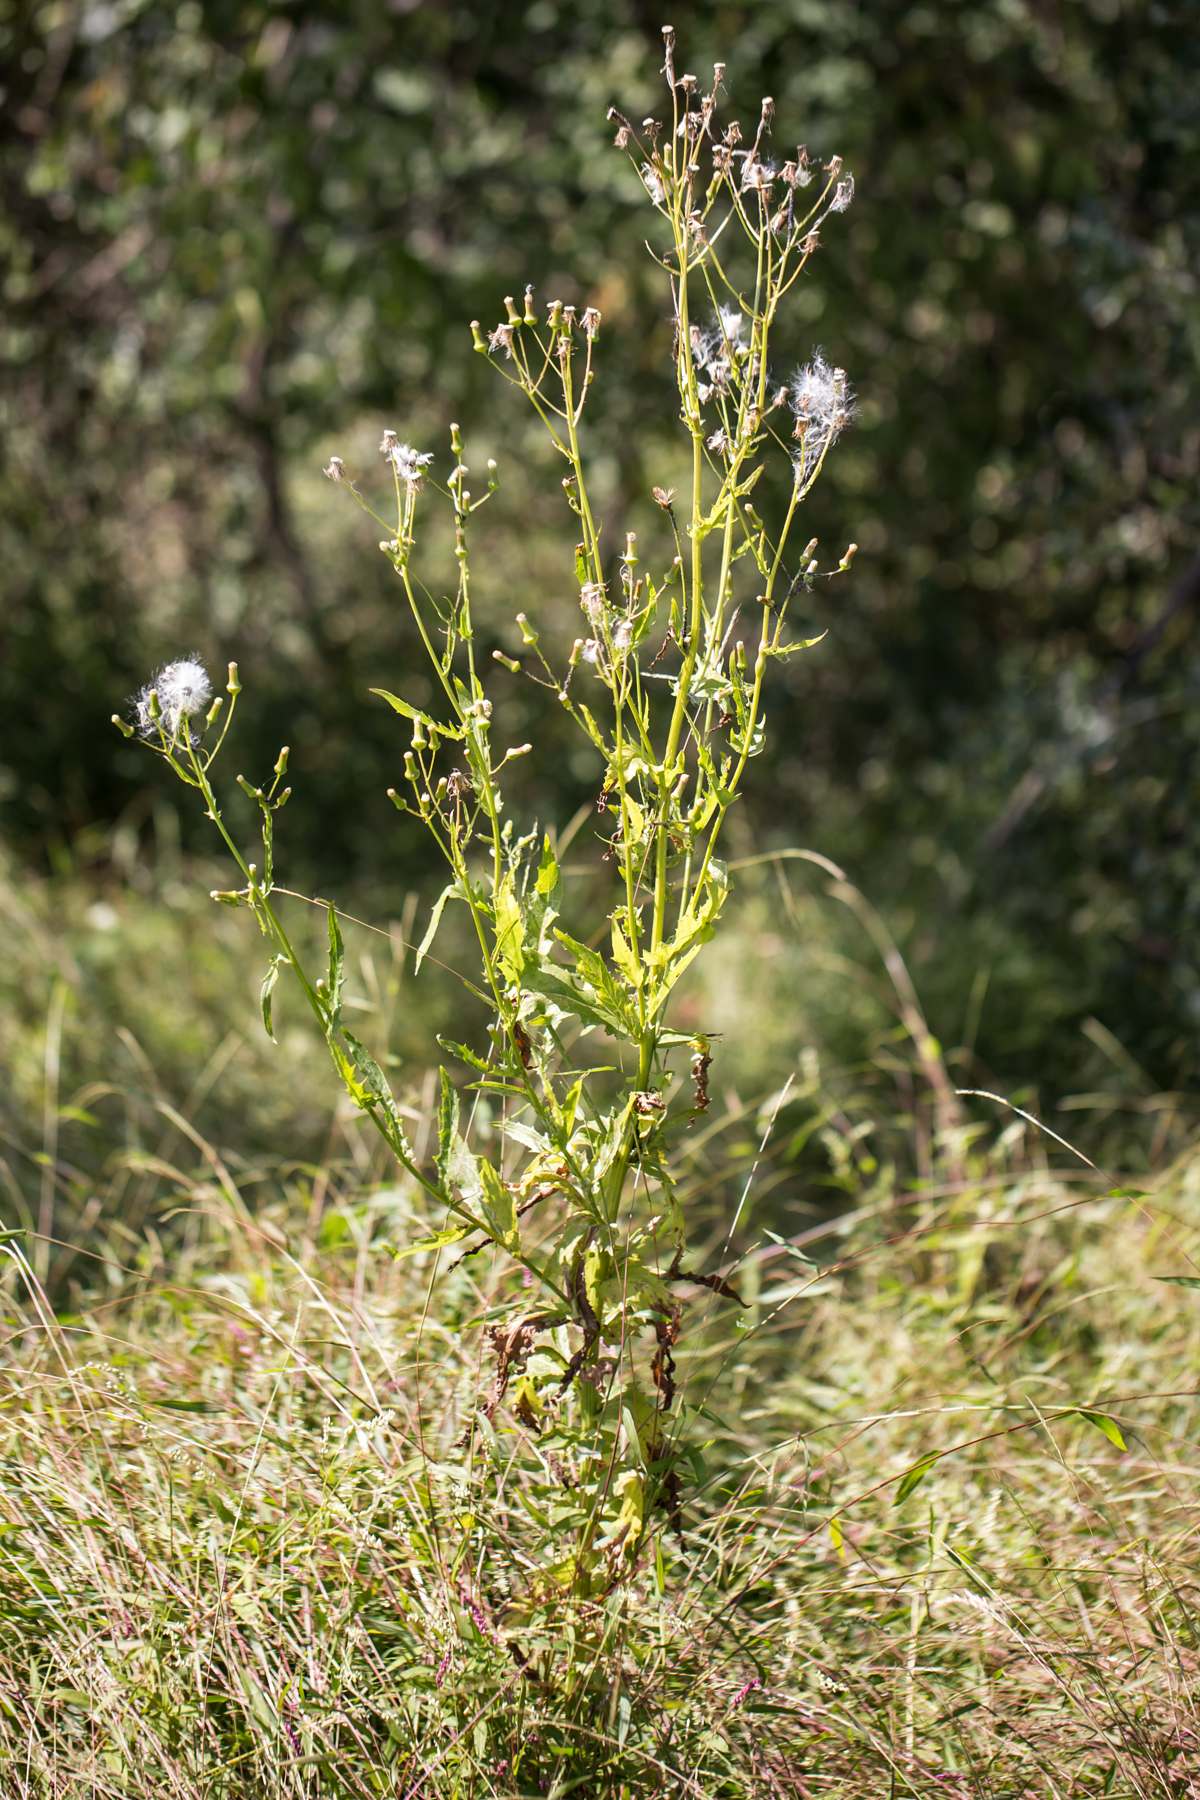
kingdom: Plantae
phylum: Tracheophyta
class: Magnoliopsida
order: Asterales
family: Asteraceae
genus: Erechtites
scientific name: Erechtites hieraciifolius
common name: American burnweed
